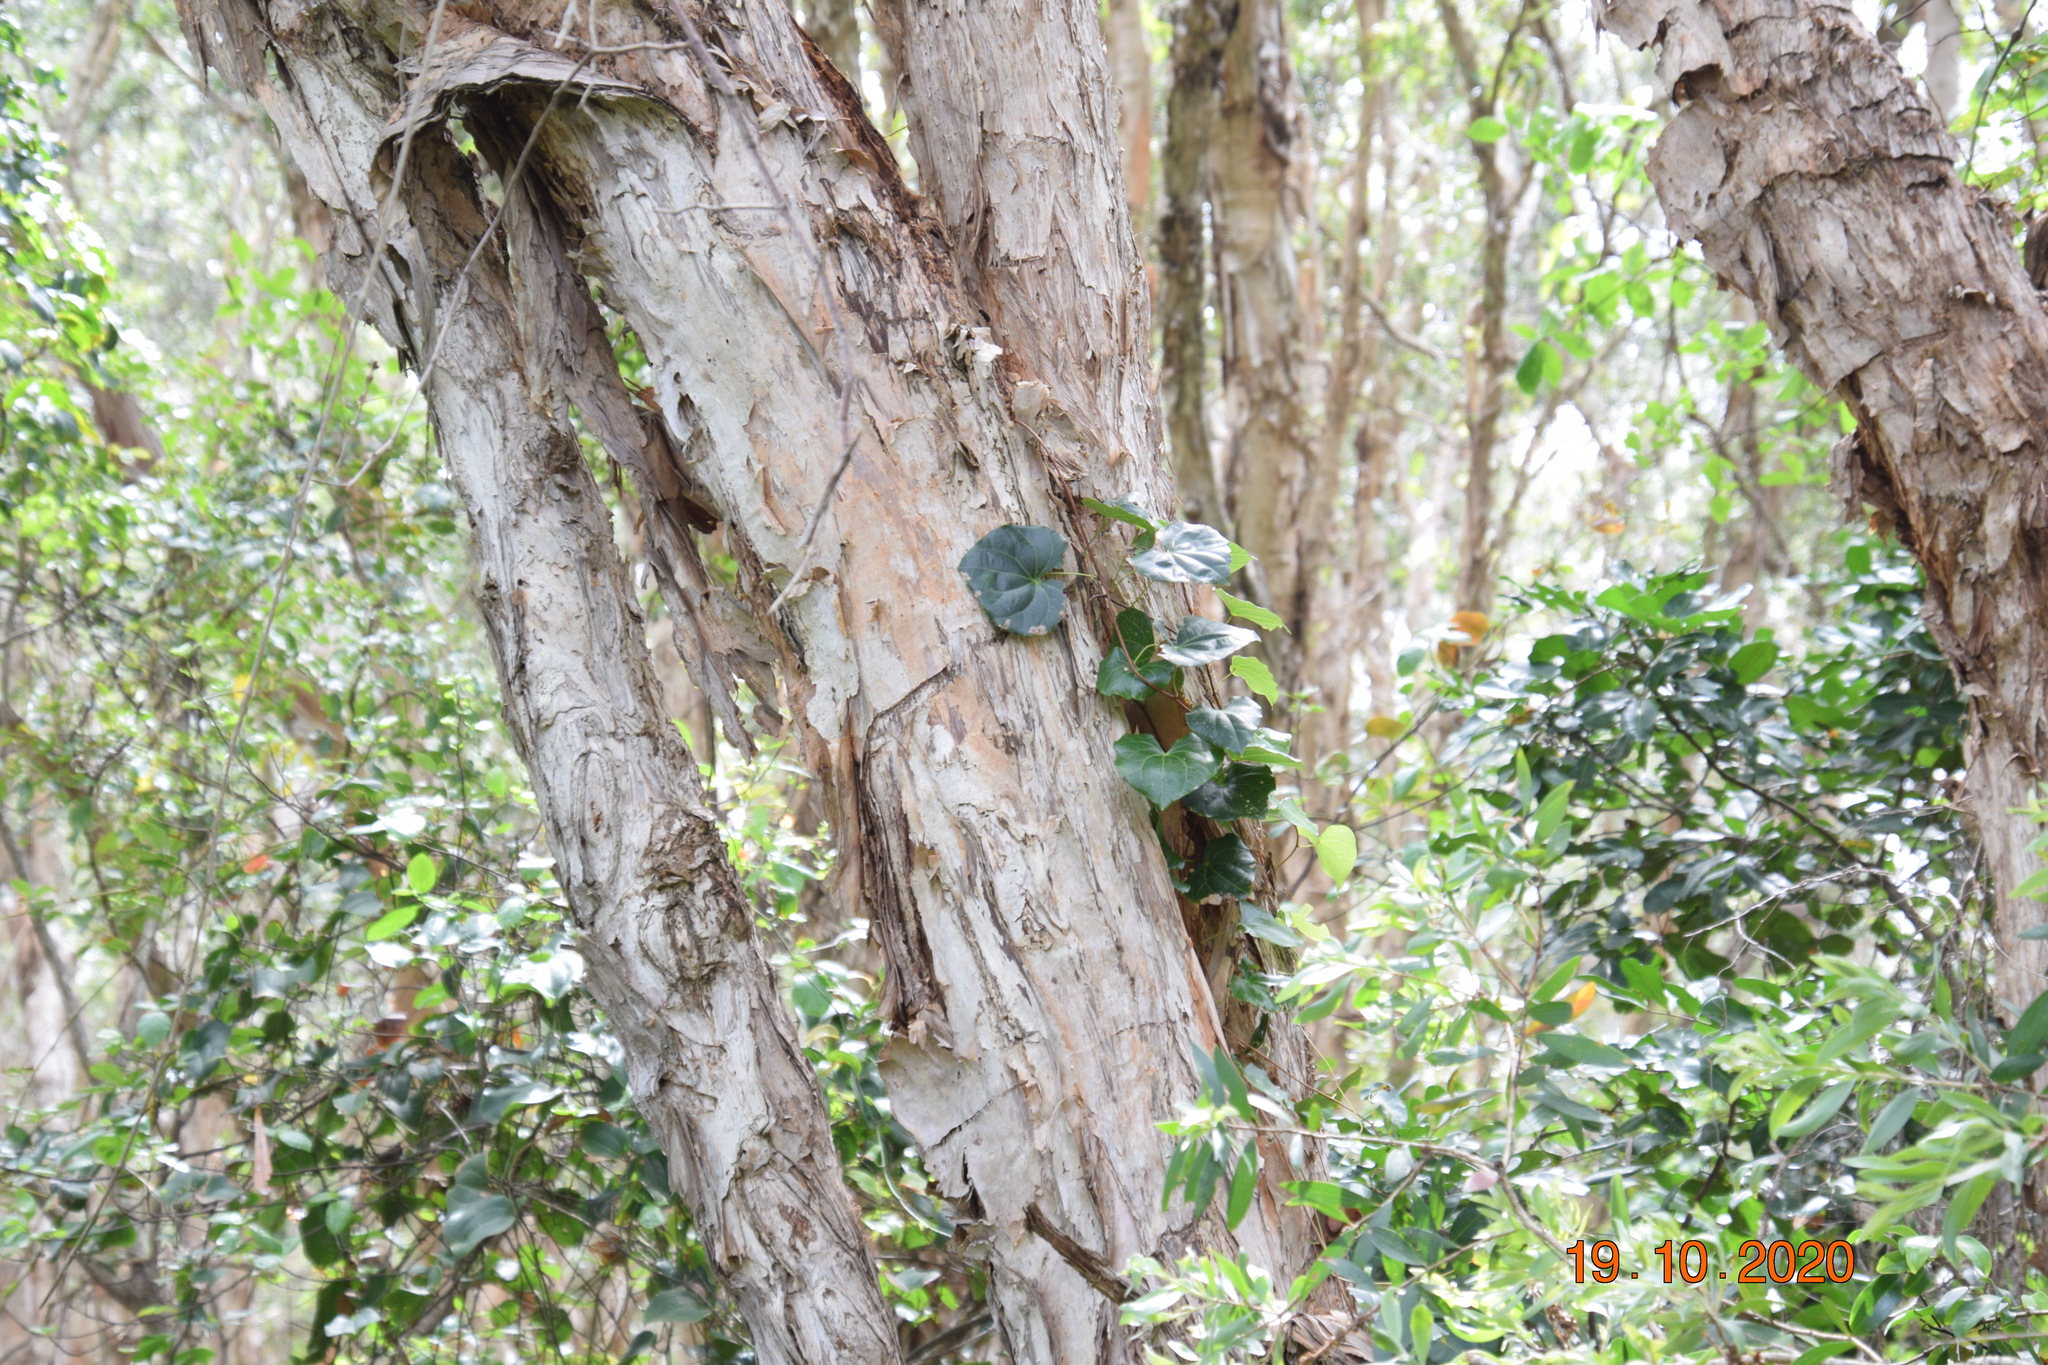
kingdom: Plantae
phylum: Tracheophyta
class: Magnoliopsida
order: Ranunculales
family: Menispermaceae
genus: Sarcopetalum
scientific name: Sarcopetalum harveyanum
